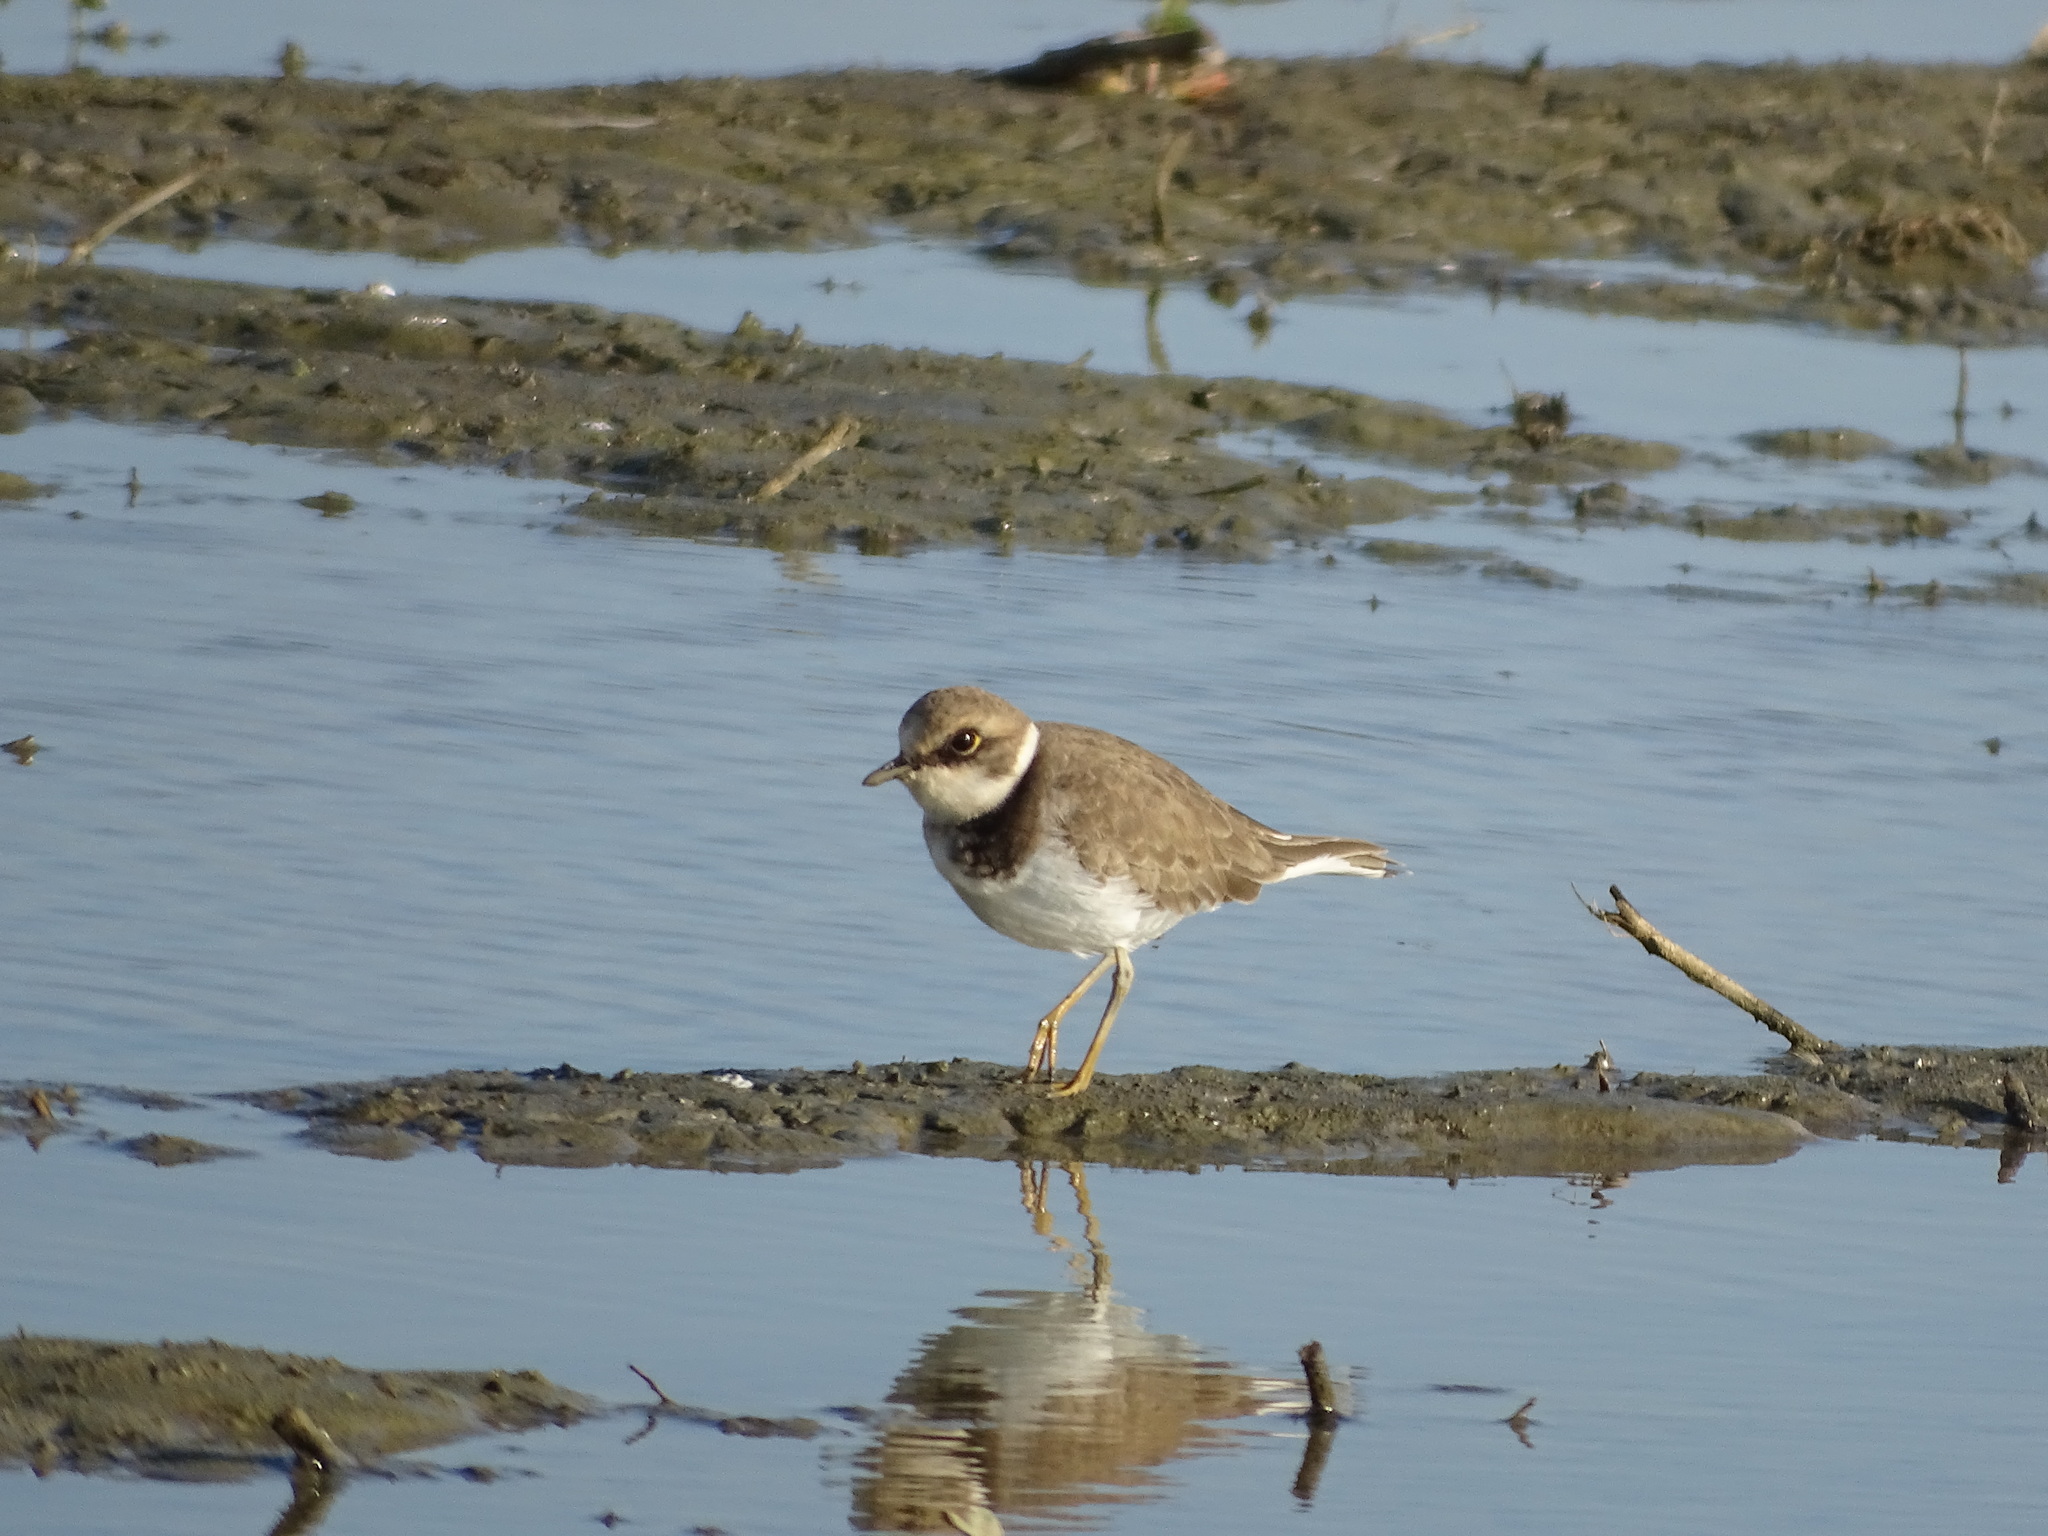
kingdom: Animalia
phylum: Chordata
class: Aves
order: Charadriiformes
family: Charadriidae
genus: Charadrius
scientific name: Charadrius dubius
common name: Little ringed plover
